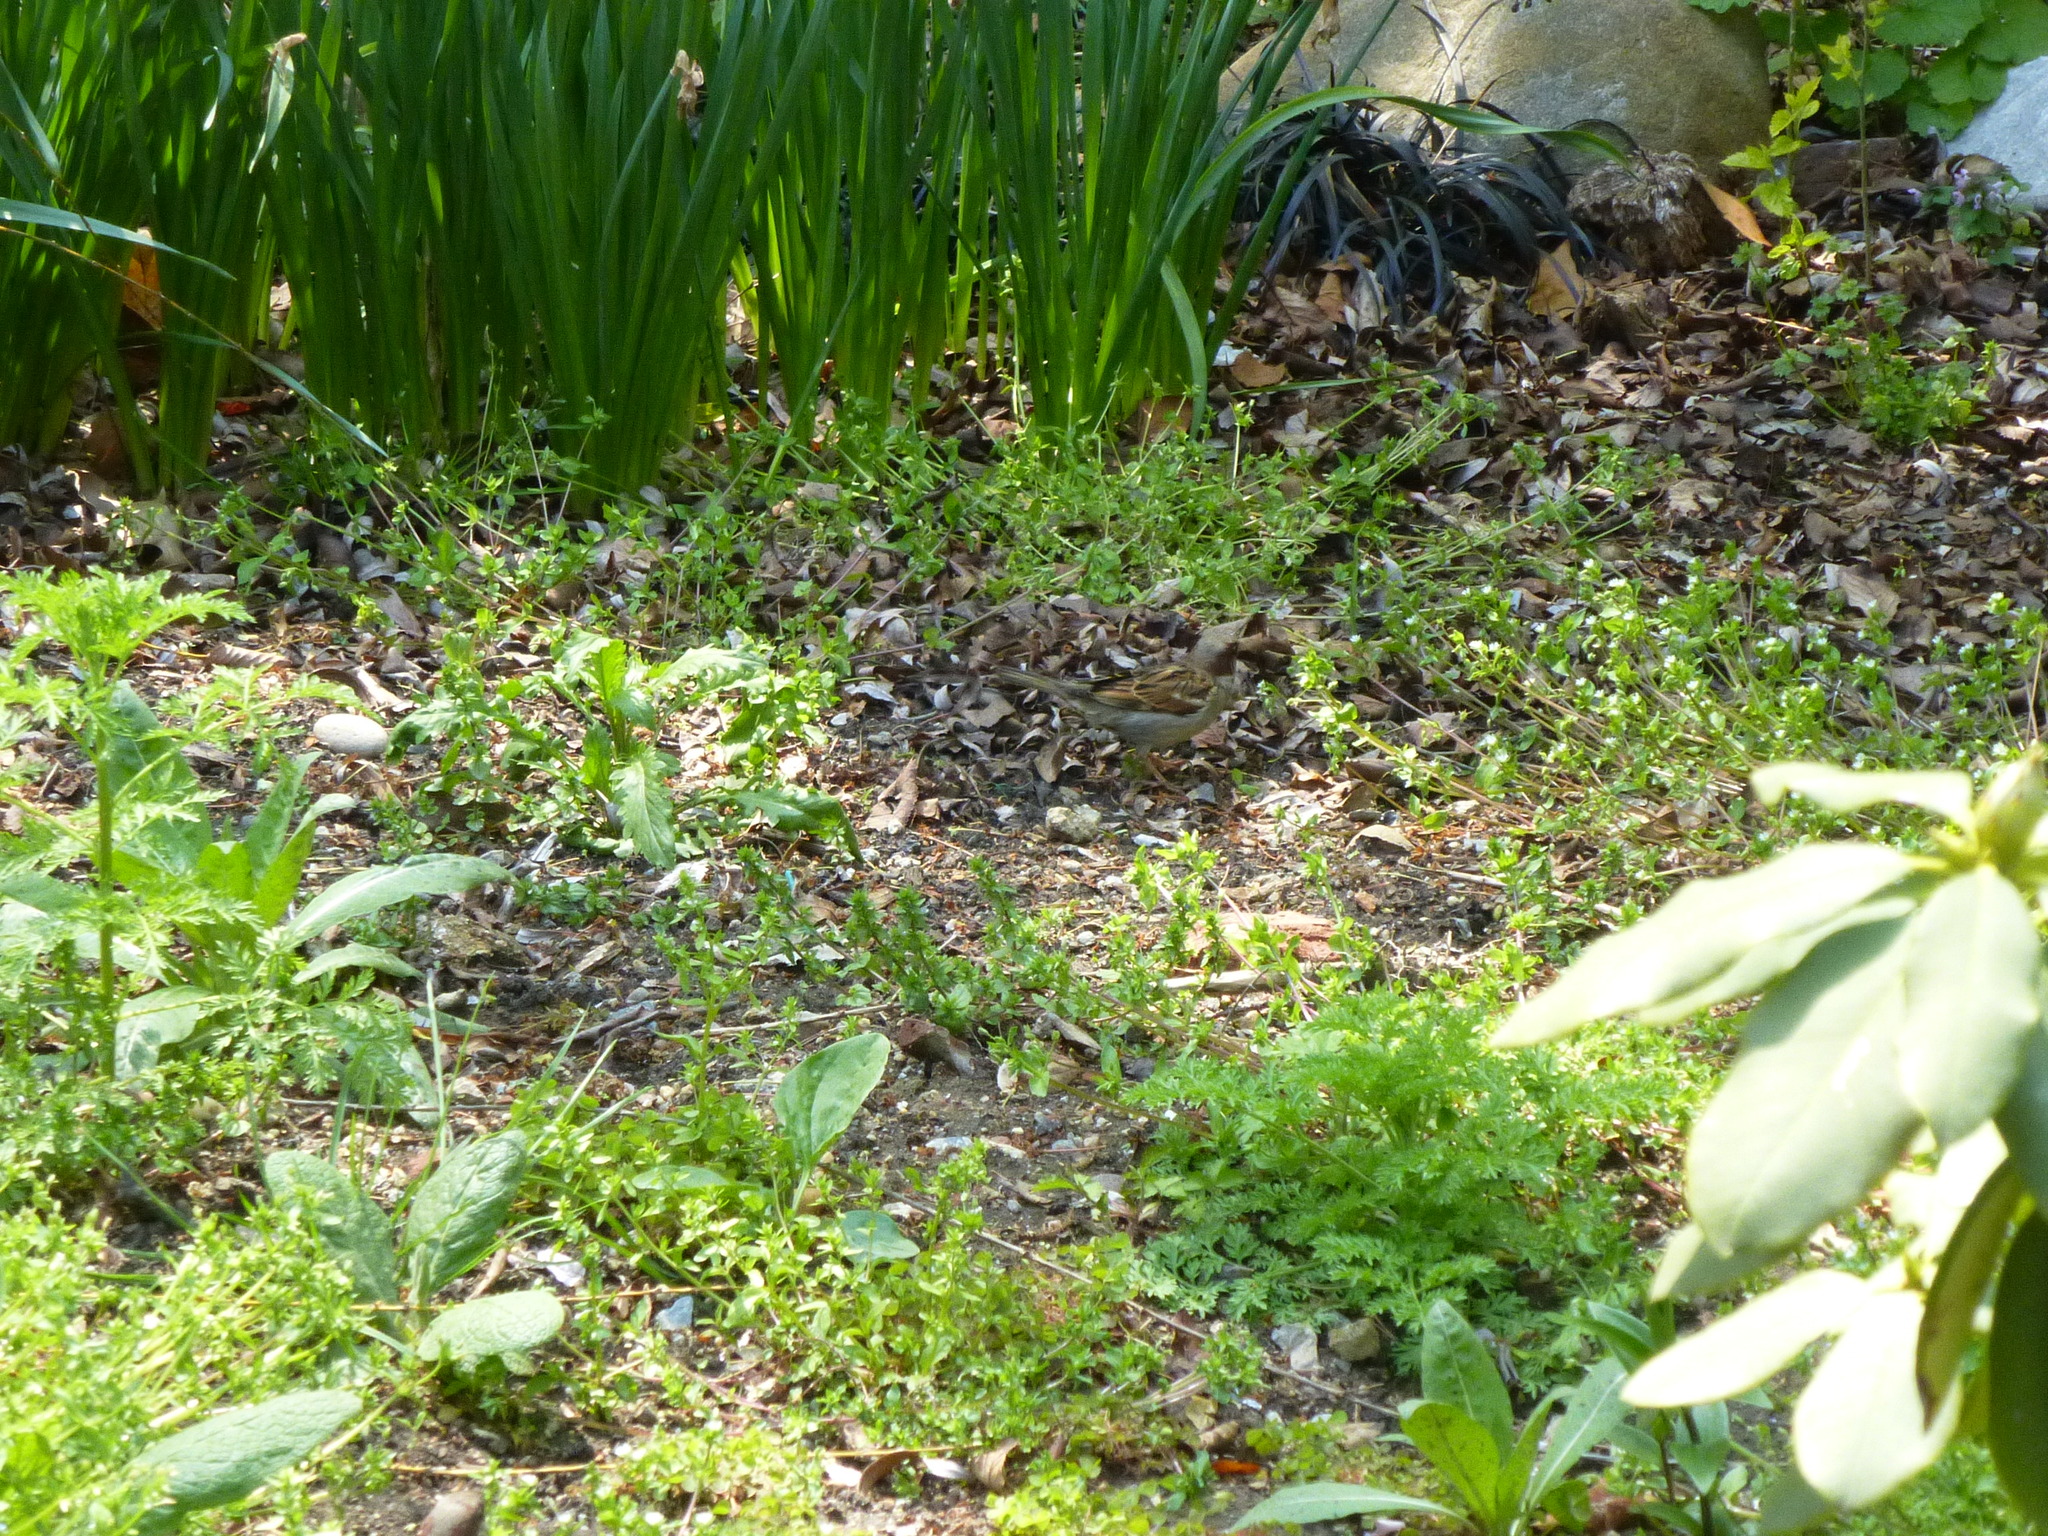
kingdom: Animalia
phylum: Chordata
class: Aves
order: Passeriformes
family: Passeridae
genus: Passer
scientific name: Passer domesticus
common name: House sparrow
